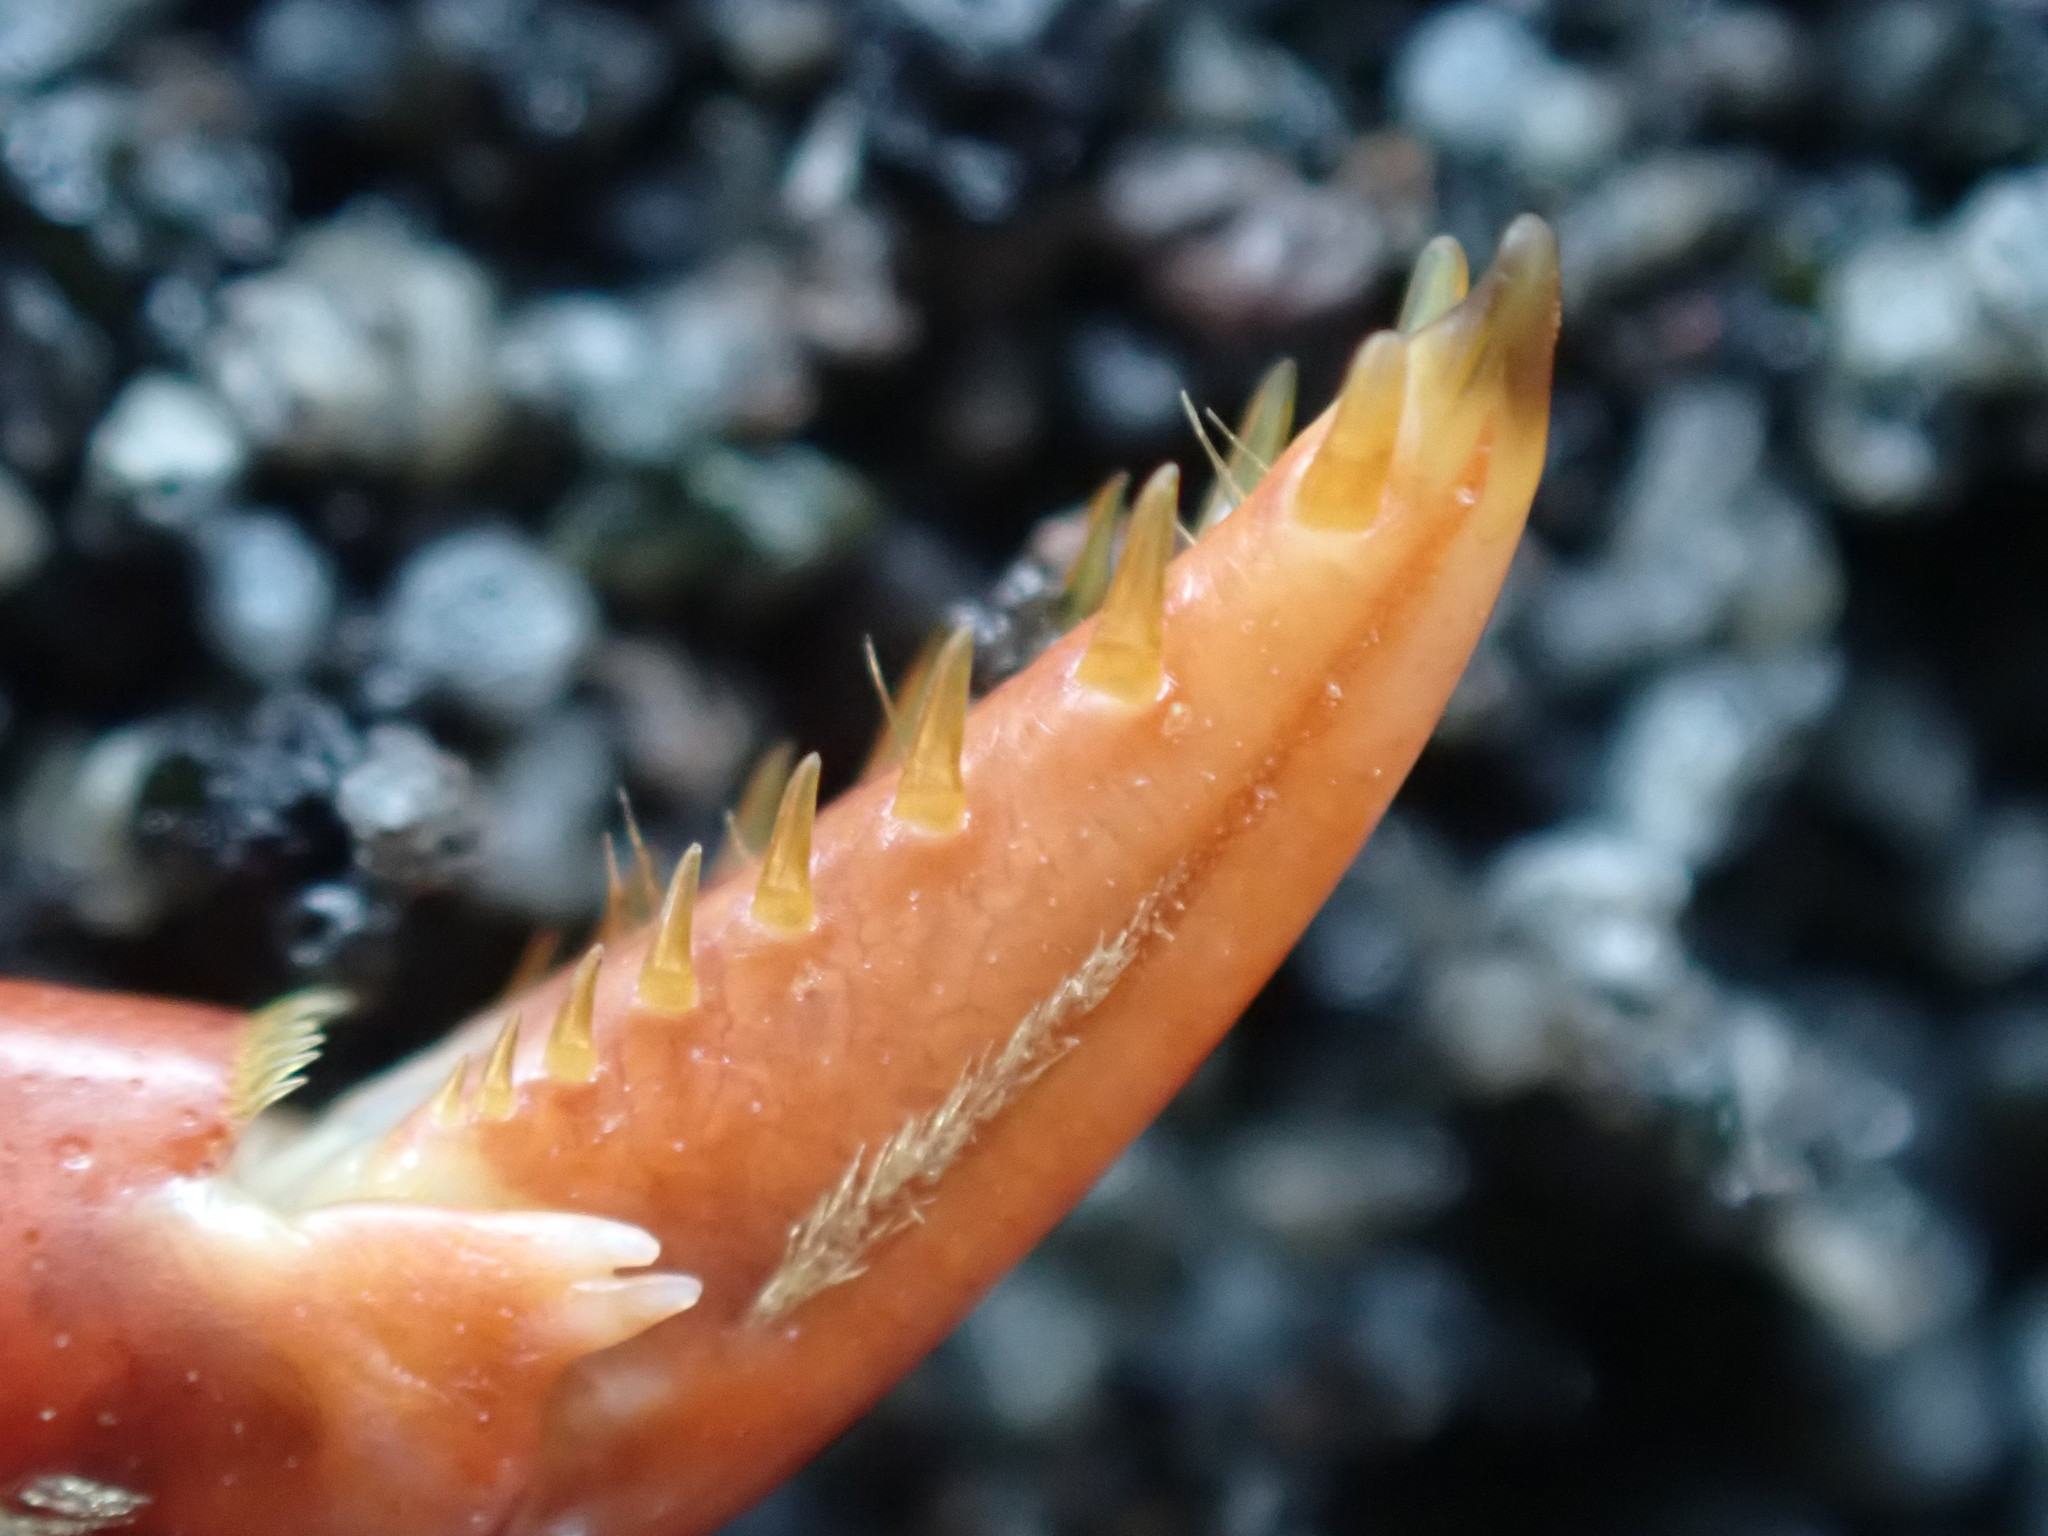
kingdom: Animalia
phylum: Arthropoda
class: Malacostraca
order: Decapoda
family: Plagusiidae
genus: Guinusia
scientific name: Guinusia chabrus
